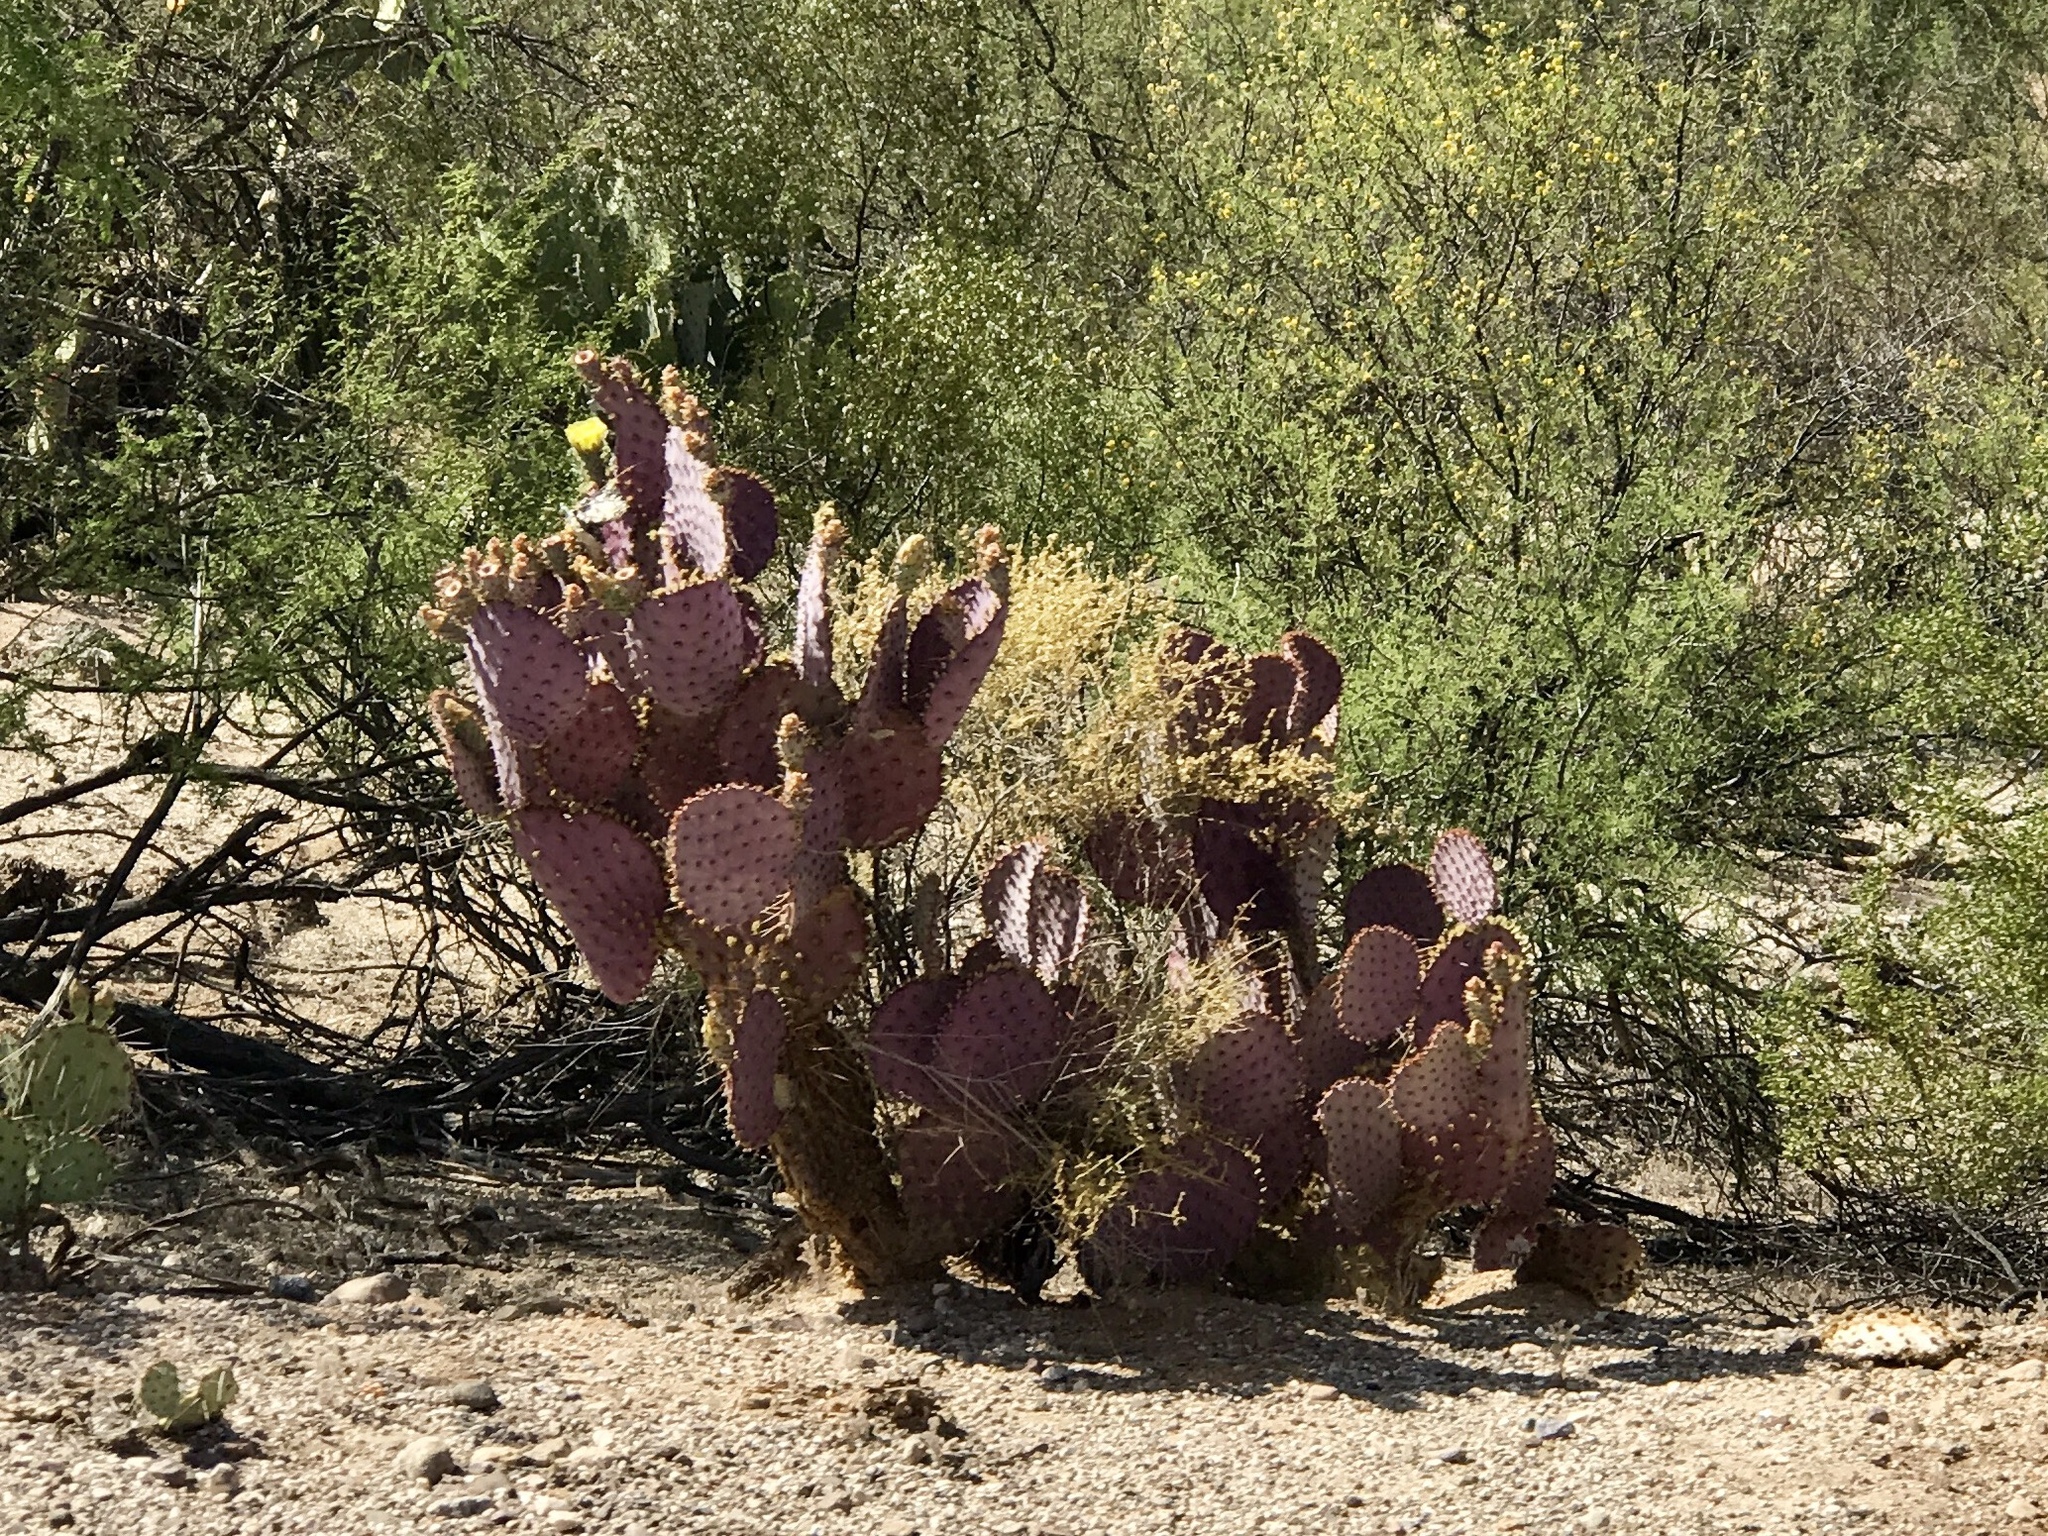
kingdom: Plantae
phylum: Tracheophyta
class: Magnoliopsida
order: Caryophyllales
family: Cactaceae
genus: Opuntia
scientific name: Opuntia gosseliniana
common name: Violet prickly-pear
